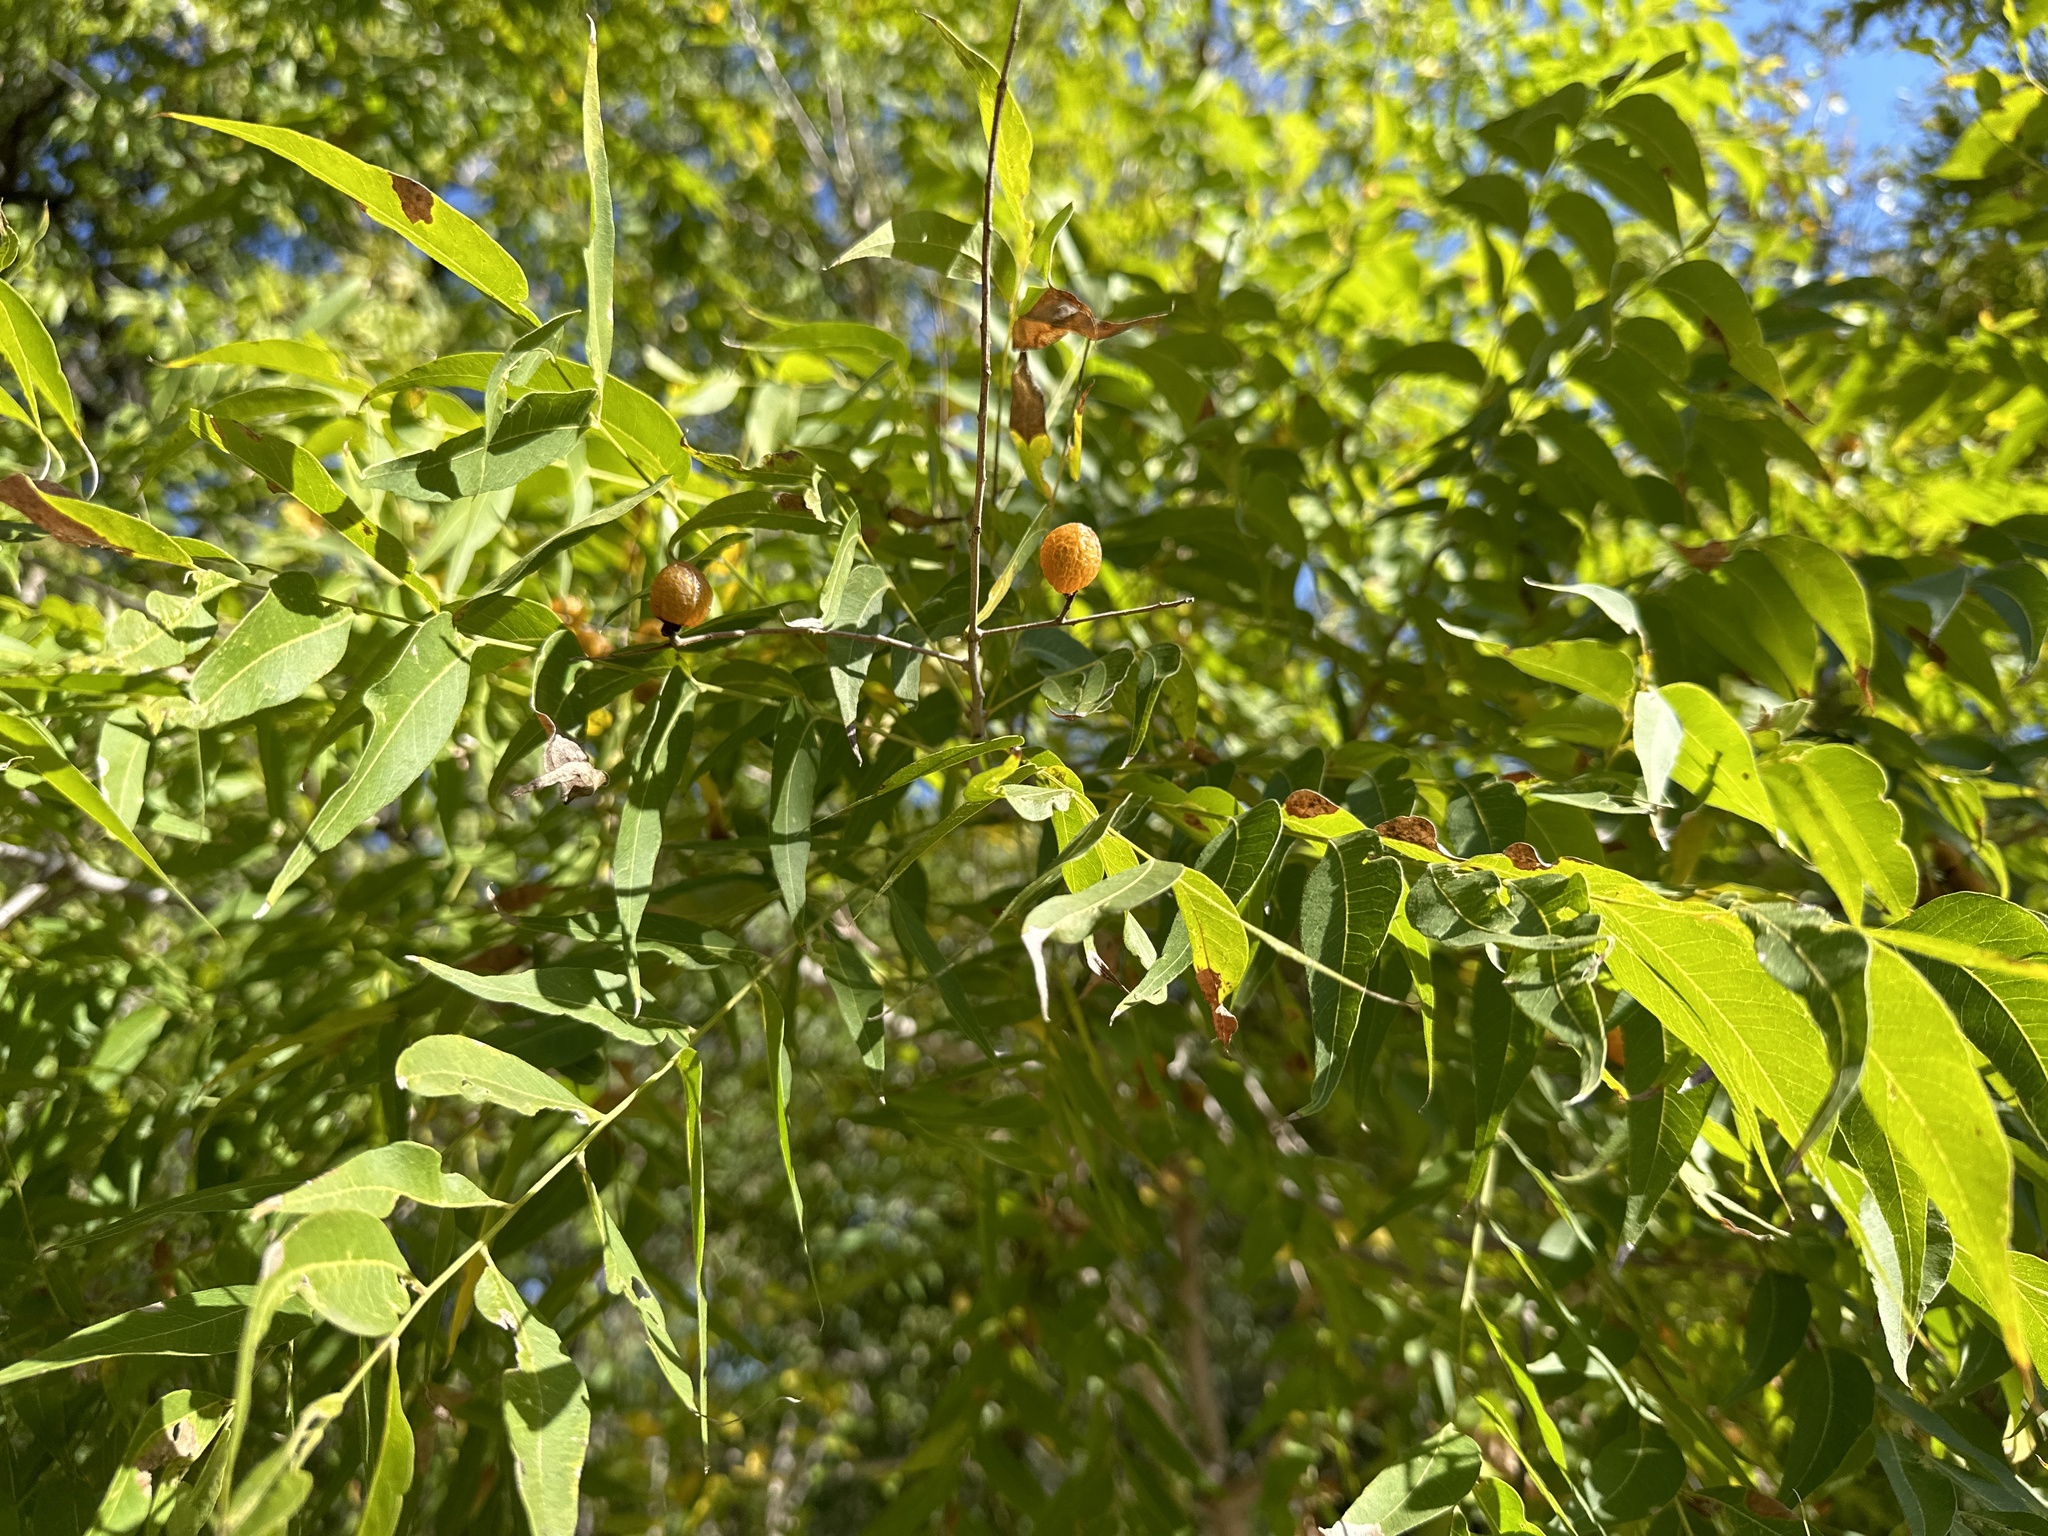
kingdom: Plantae
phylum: Tracheophyta
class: Magnoliopsida
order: Sapindales
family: Sapindaceae
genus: Sapindus
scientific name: Sapindus drummondii
